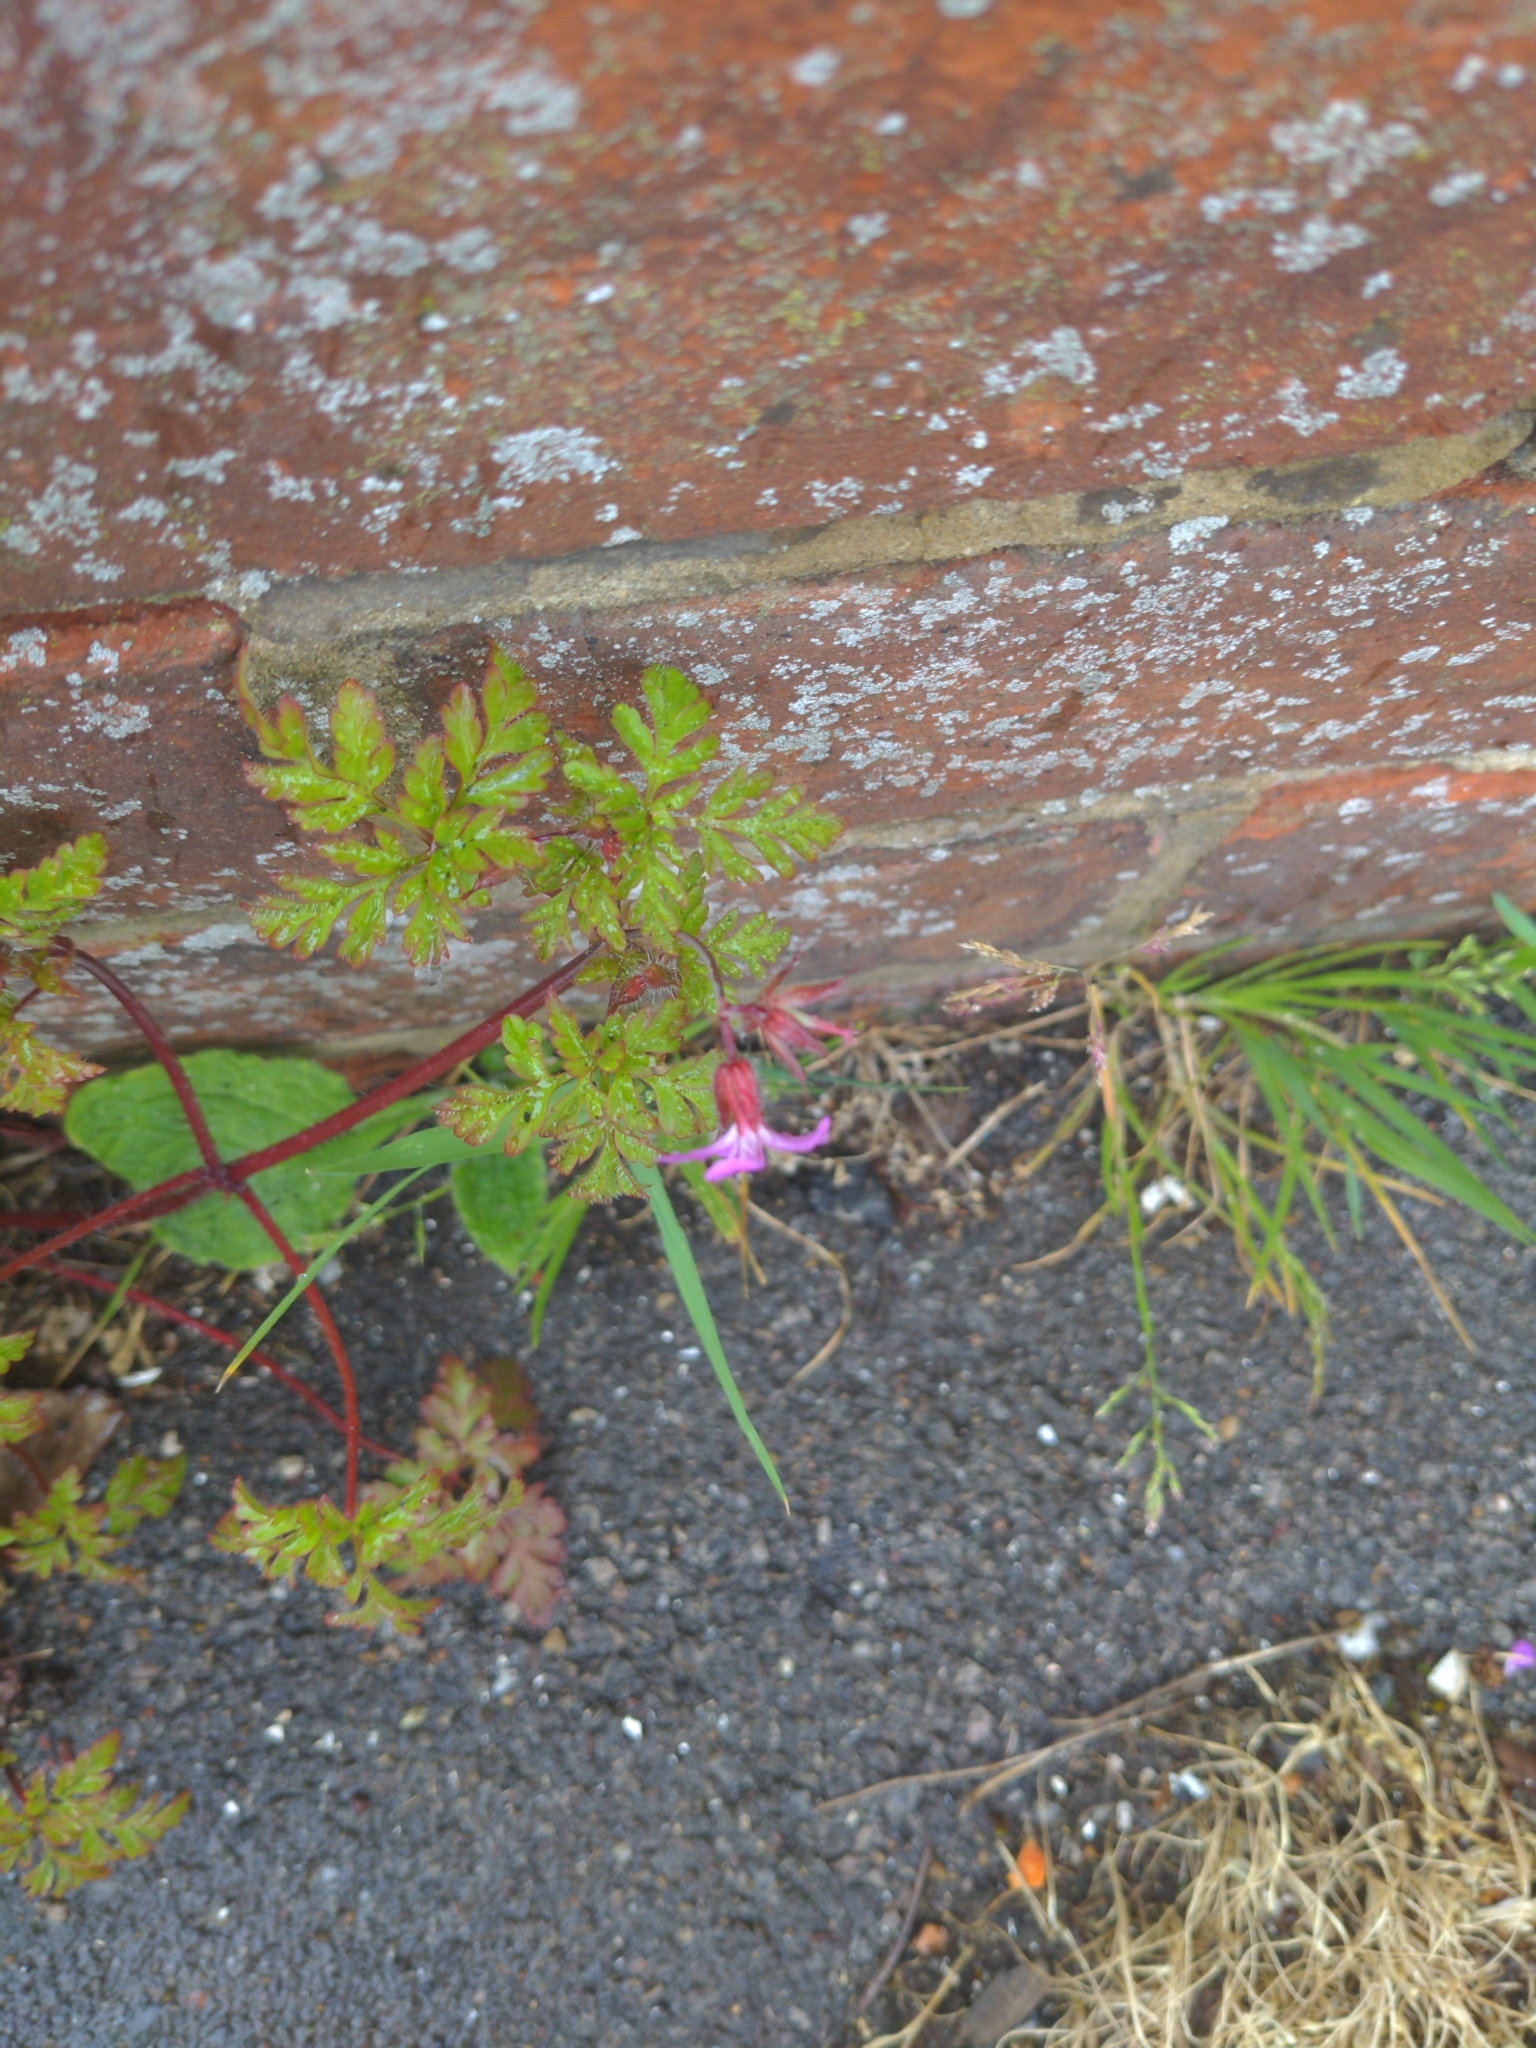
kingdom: Plantae
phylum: Tracheophyta
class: Magnoliopsida
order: Geraniales
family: Geraniaceae
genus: Geranium
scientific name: Geranium robertianum
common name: Herb-robert
